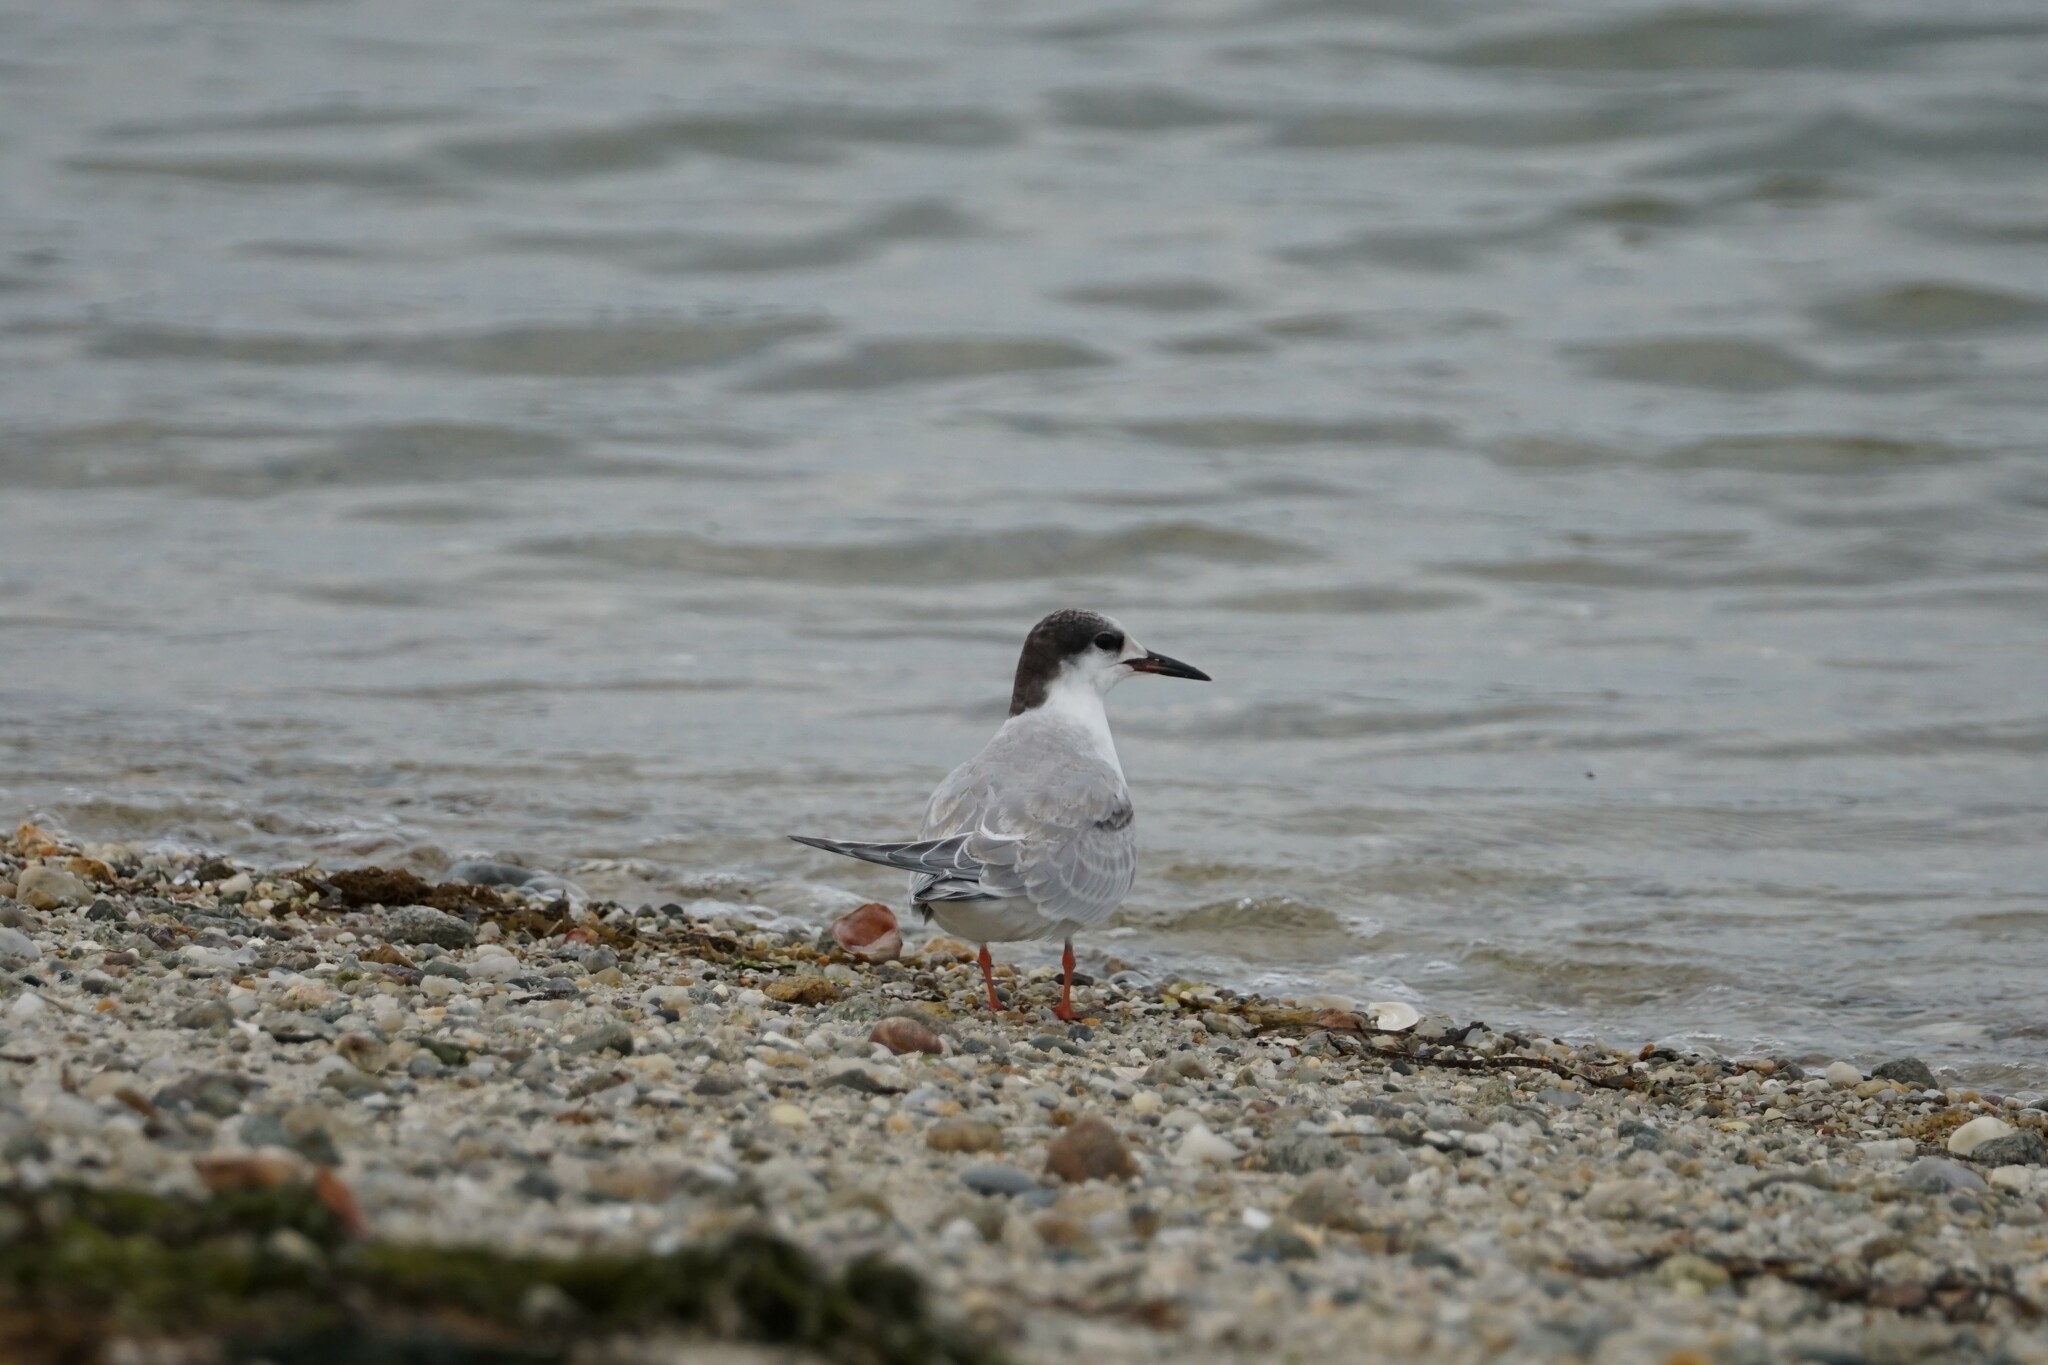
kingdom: Animalia
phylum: Chordata
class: Aves
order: Charadriiformes
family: Laridae
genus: Sterna
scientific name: Sterna hirundo
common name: Common tern
